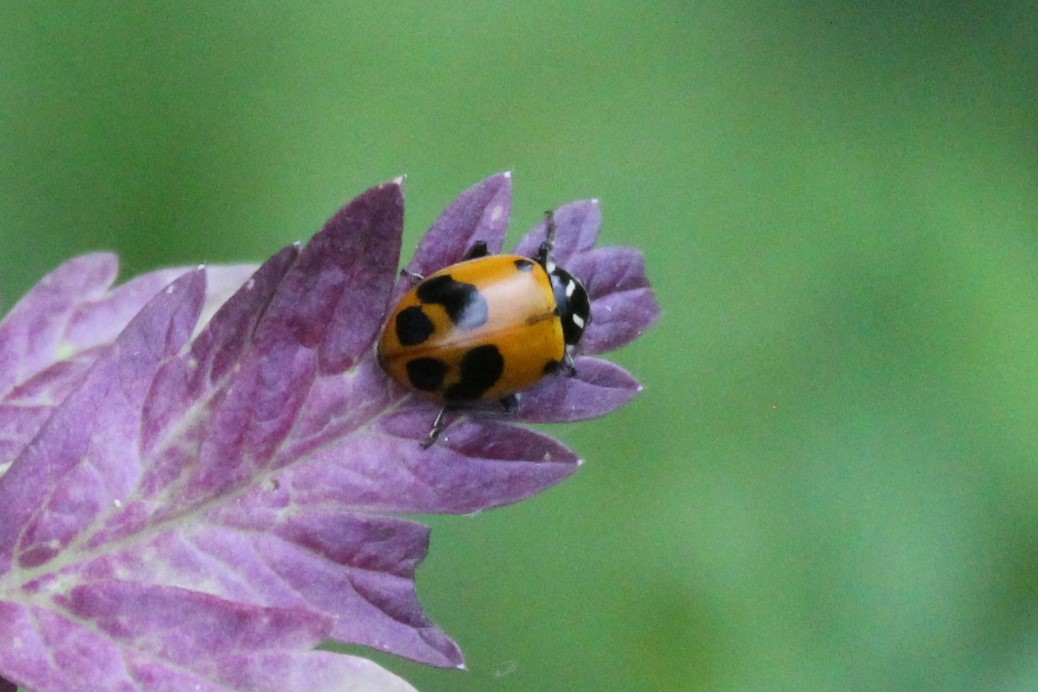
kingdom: Animalia
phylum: Arthropoda
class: Insecta
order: Coleoptera
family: Coccinellidae
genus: Hippodamia
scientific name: Hippodamia glacialis
